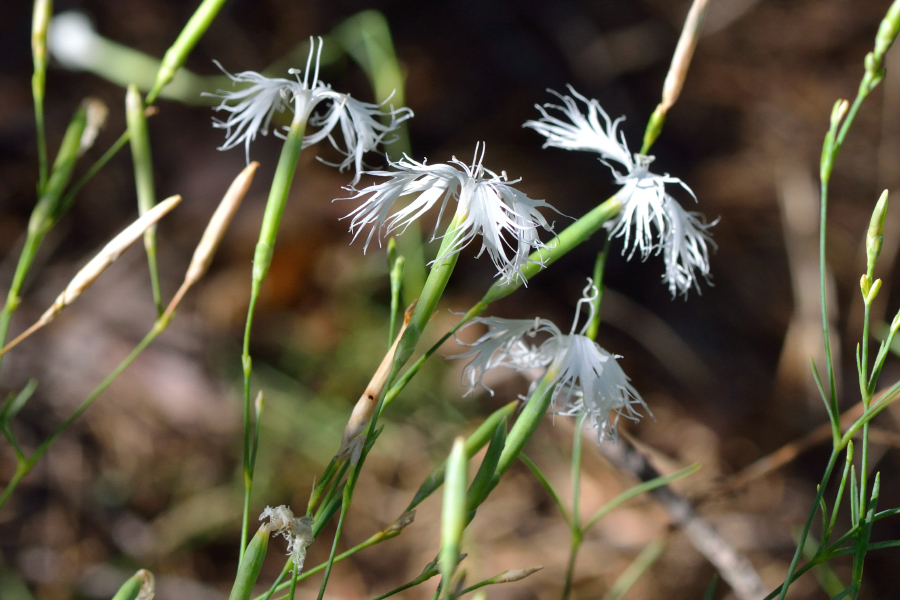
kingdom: Plantae
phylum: Tracheophyta
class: Magnoliopsida
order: Caryophyllales
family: Caryophyllaceae
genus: Dianthus
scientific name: Dianthus arenarius
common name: Stone pink
